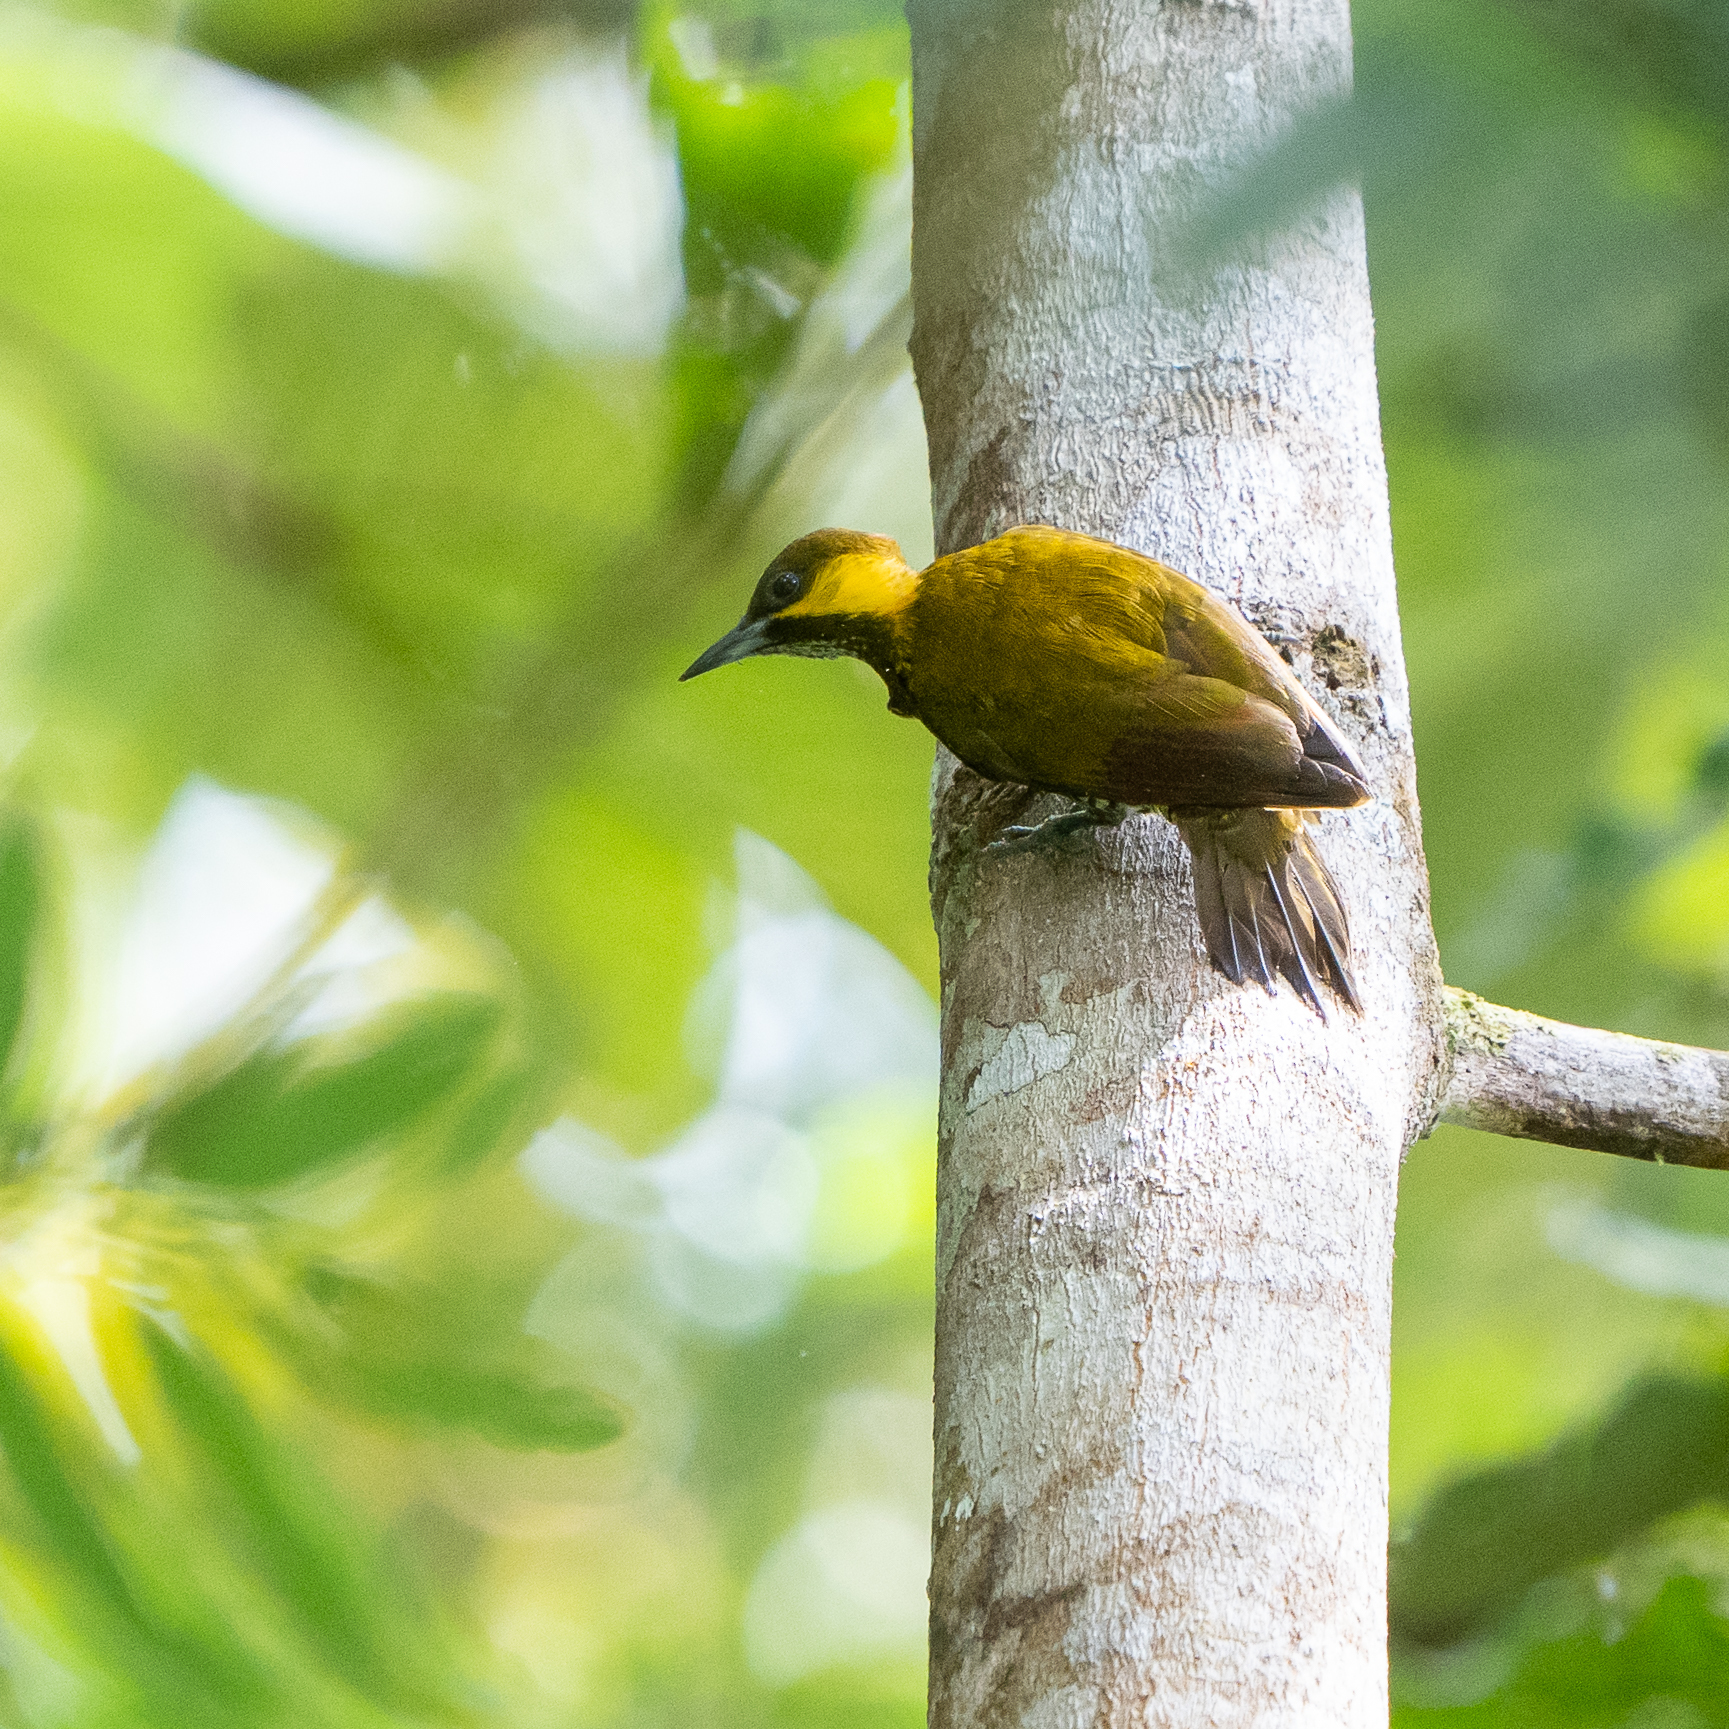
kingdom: Animalia
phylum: Chordata
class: Aves
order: Piciformes
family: Picidae
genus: Piculus
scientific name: Piculus litae
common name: Lita woodpecker
